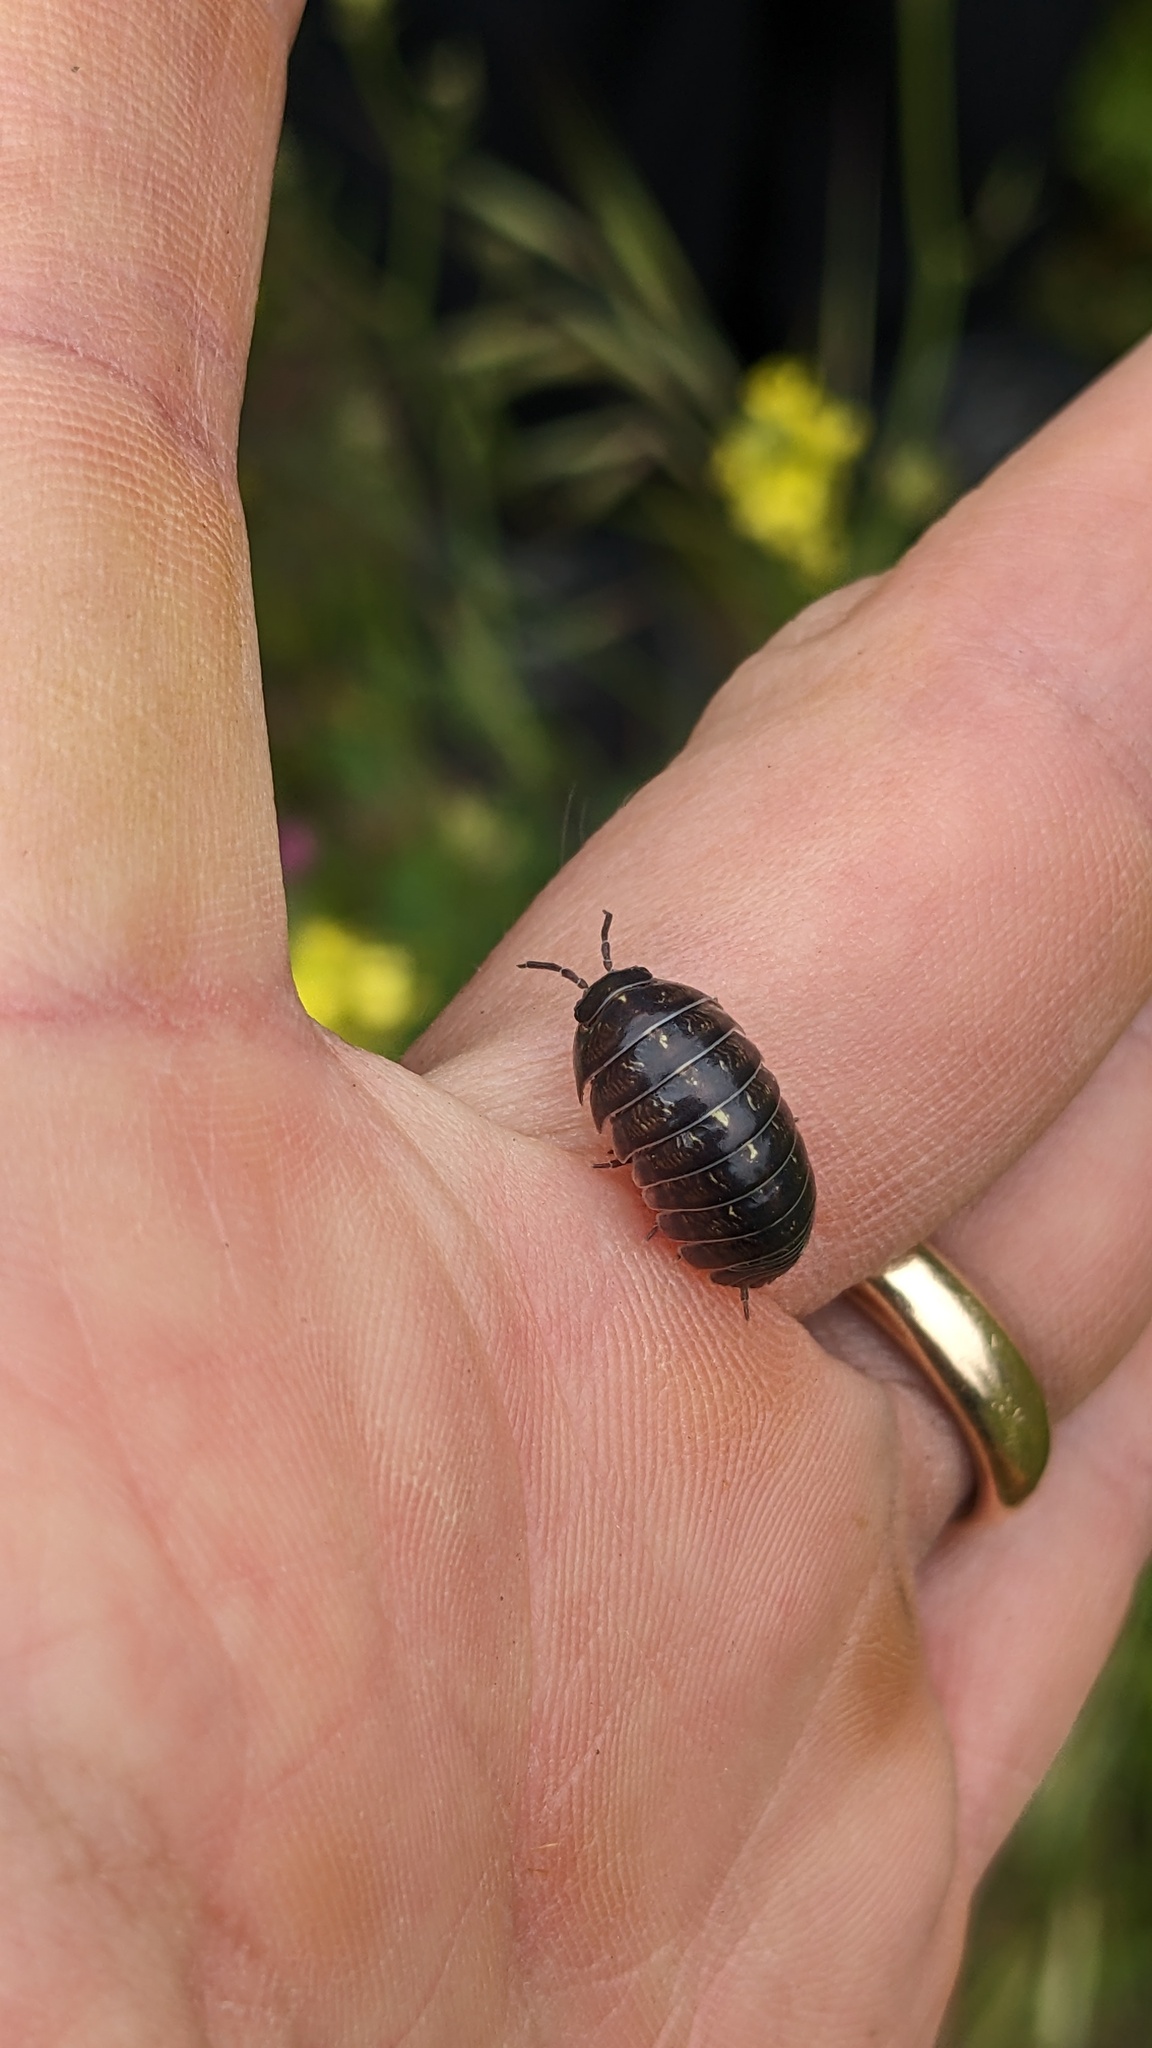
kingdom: Animalia
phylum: Arthropoda
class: Malacostraca
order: Isopoda
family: Armadillidiidae
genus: Armadillidium
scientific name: Armadillidium vulgare
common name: Common pill woodlouse
